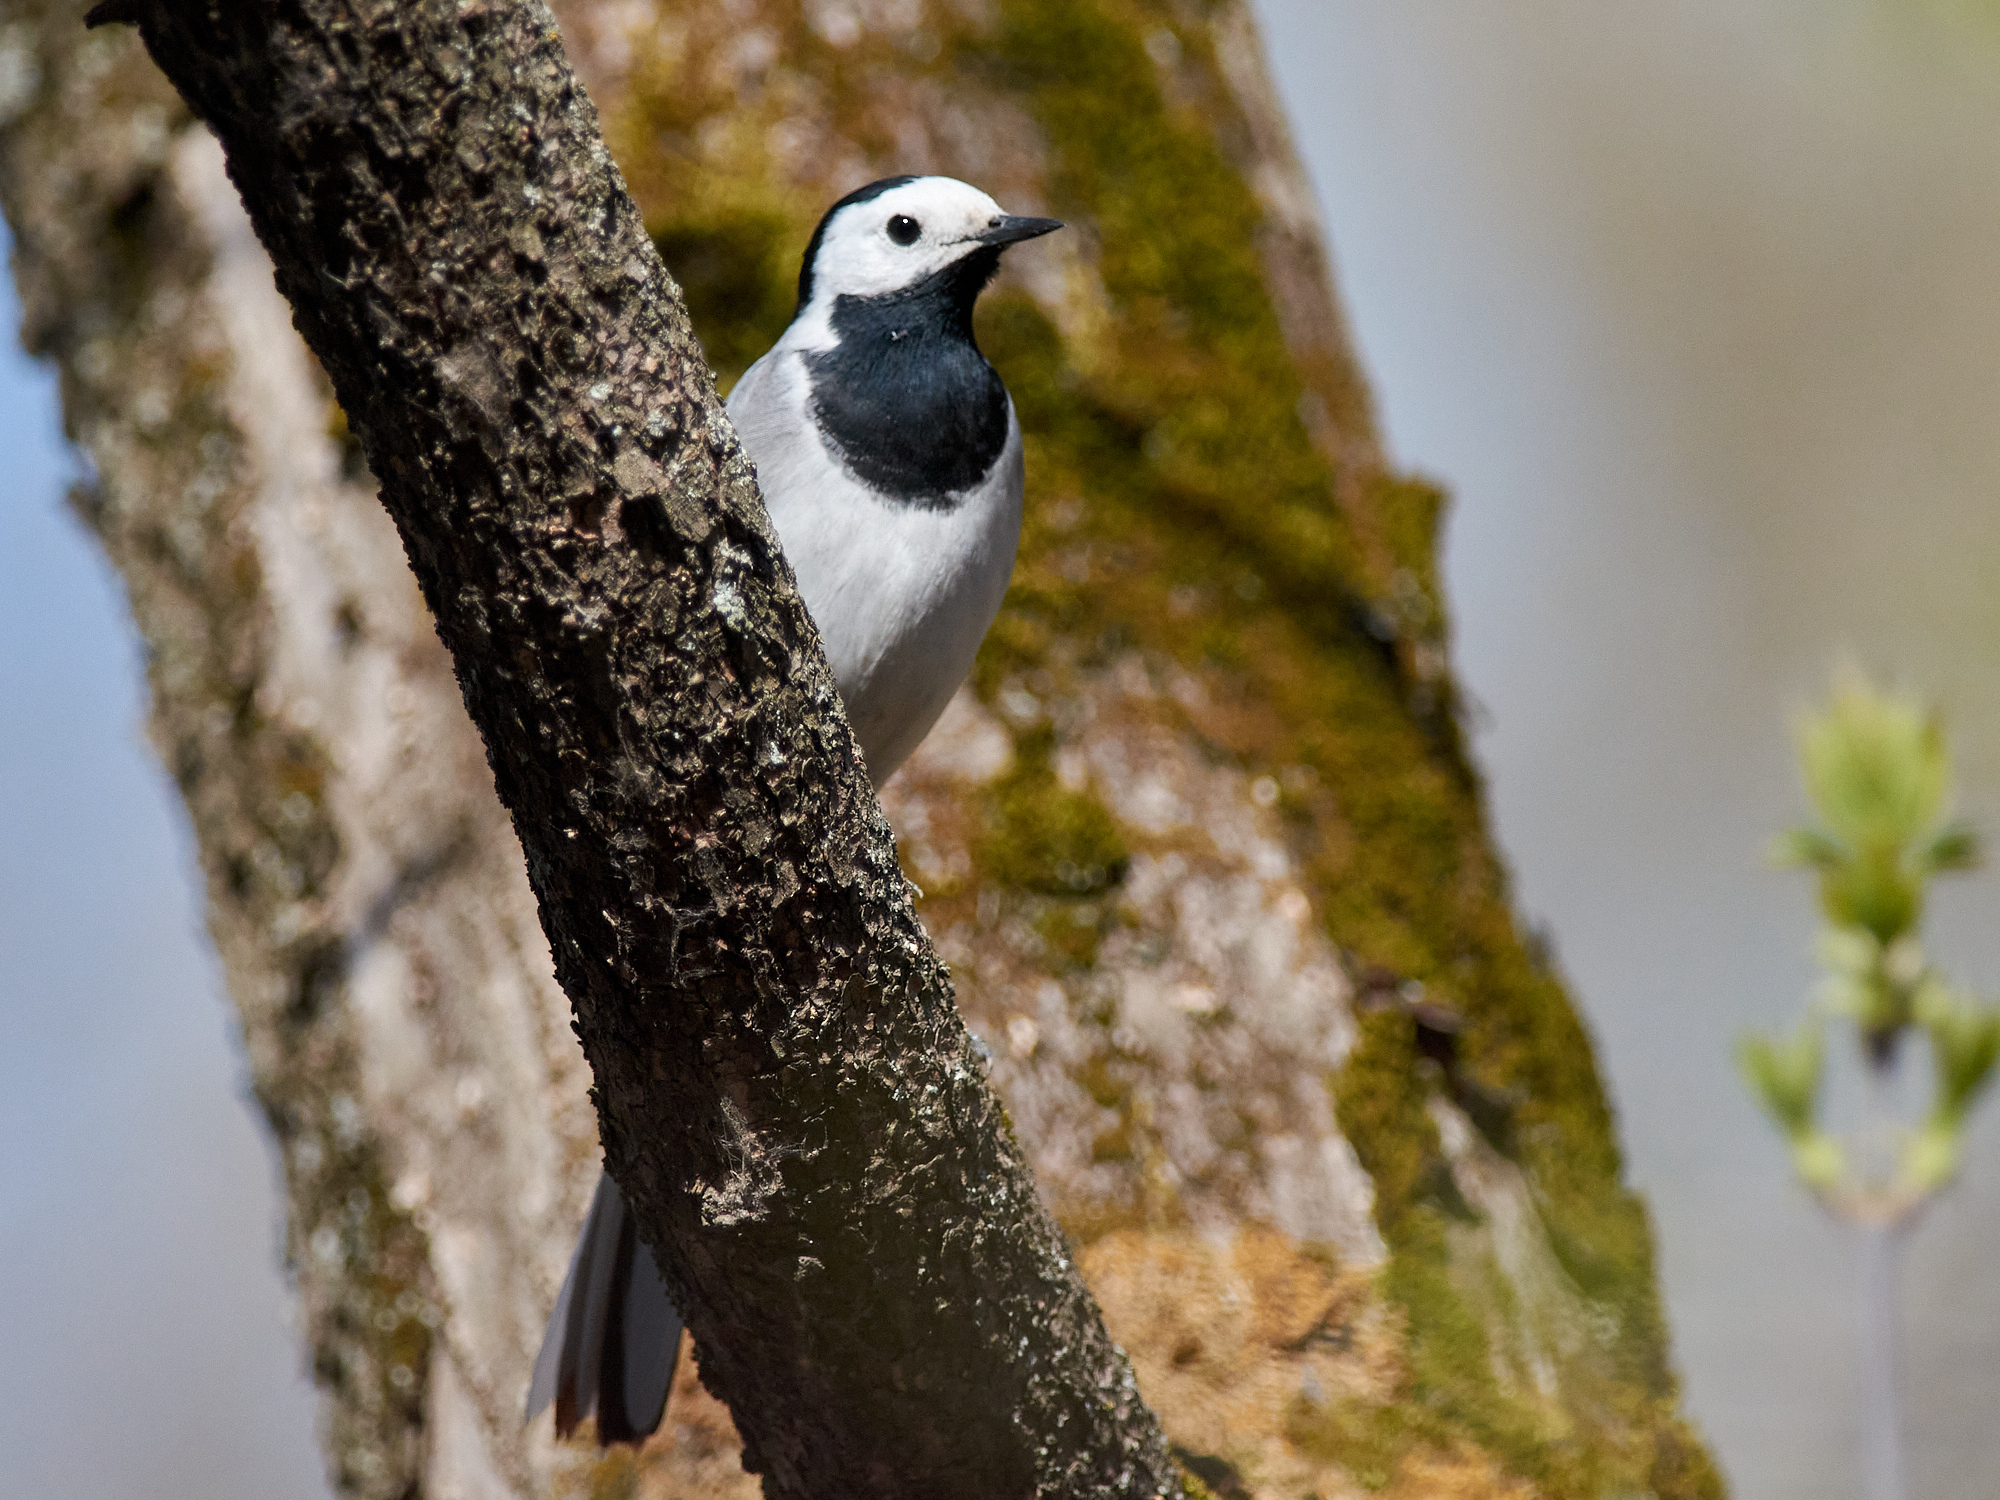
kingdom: Animalia
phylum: Chordata
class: Aves
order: Passeriformes
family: Motacillidae
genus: Motacilla
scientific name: Motacilla alba
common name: White wagtail
